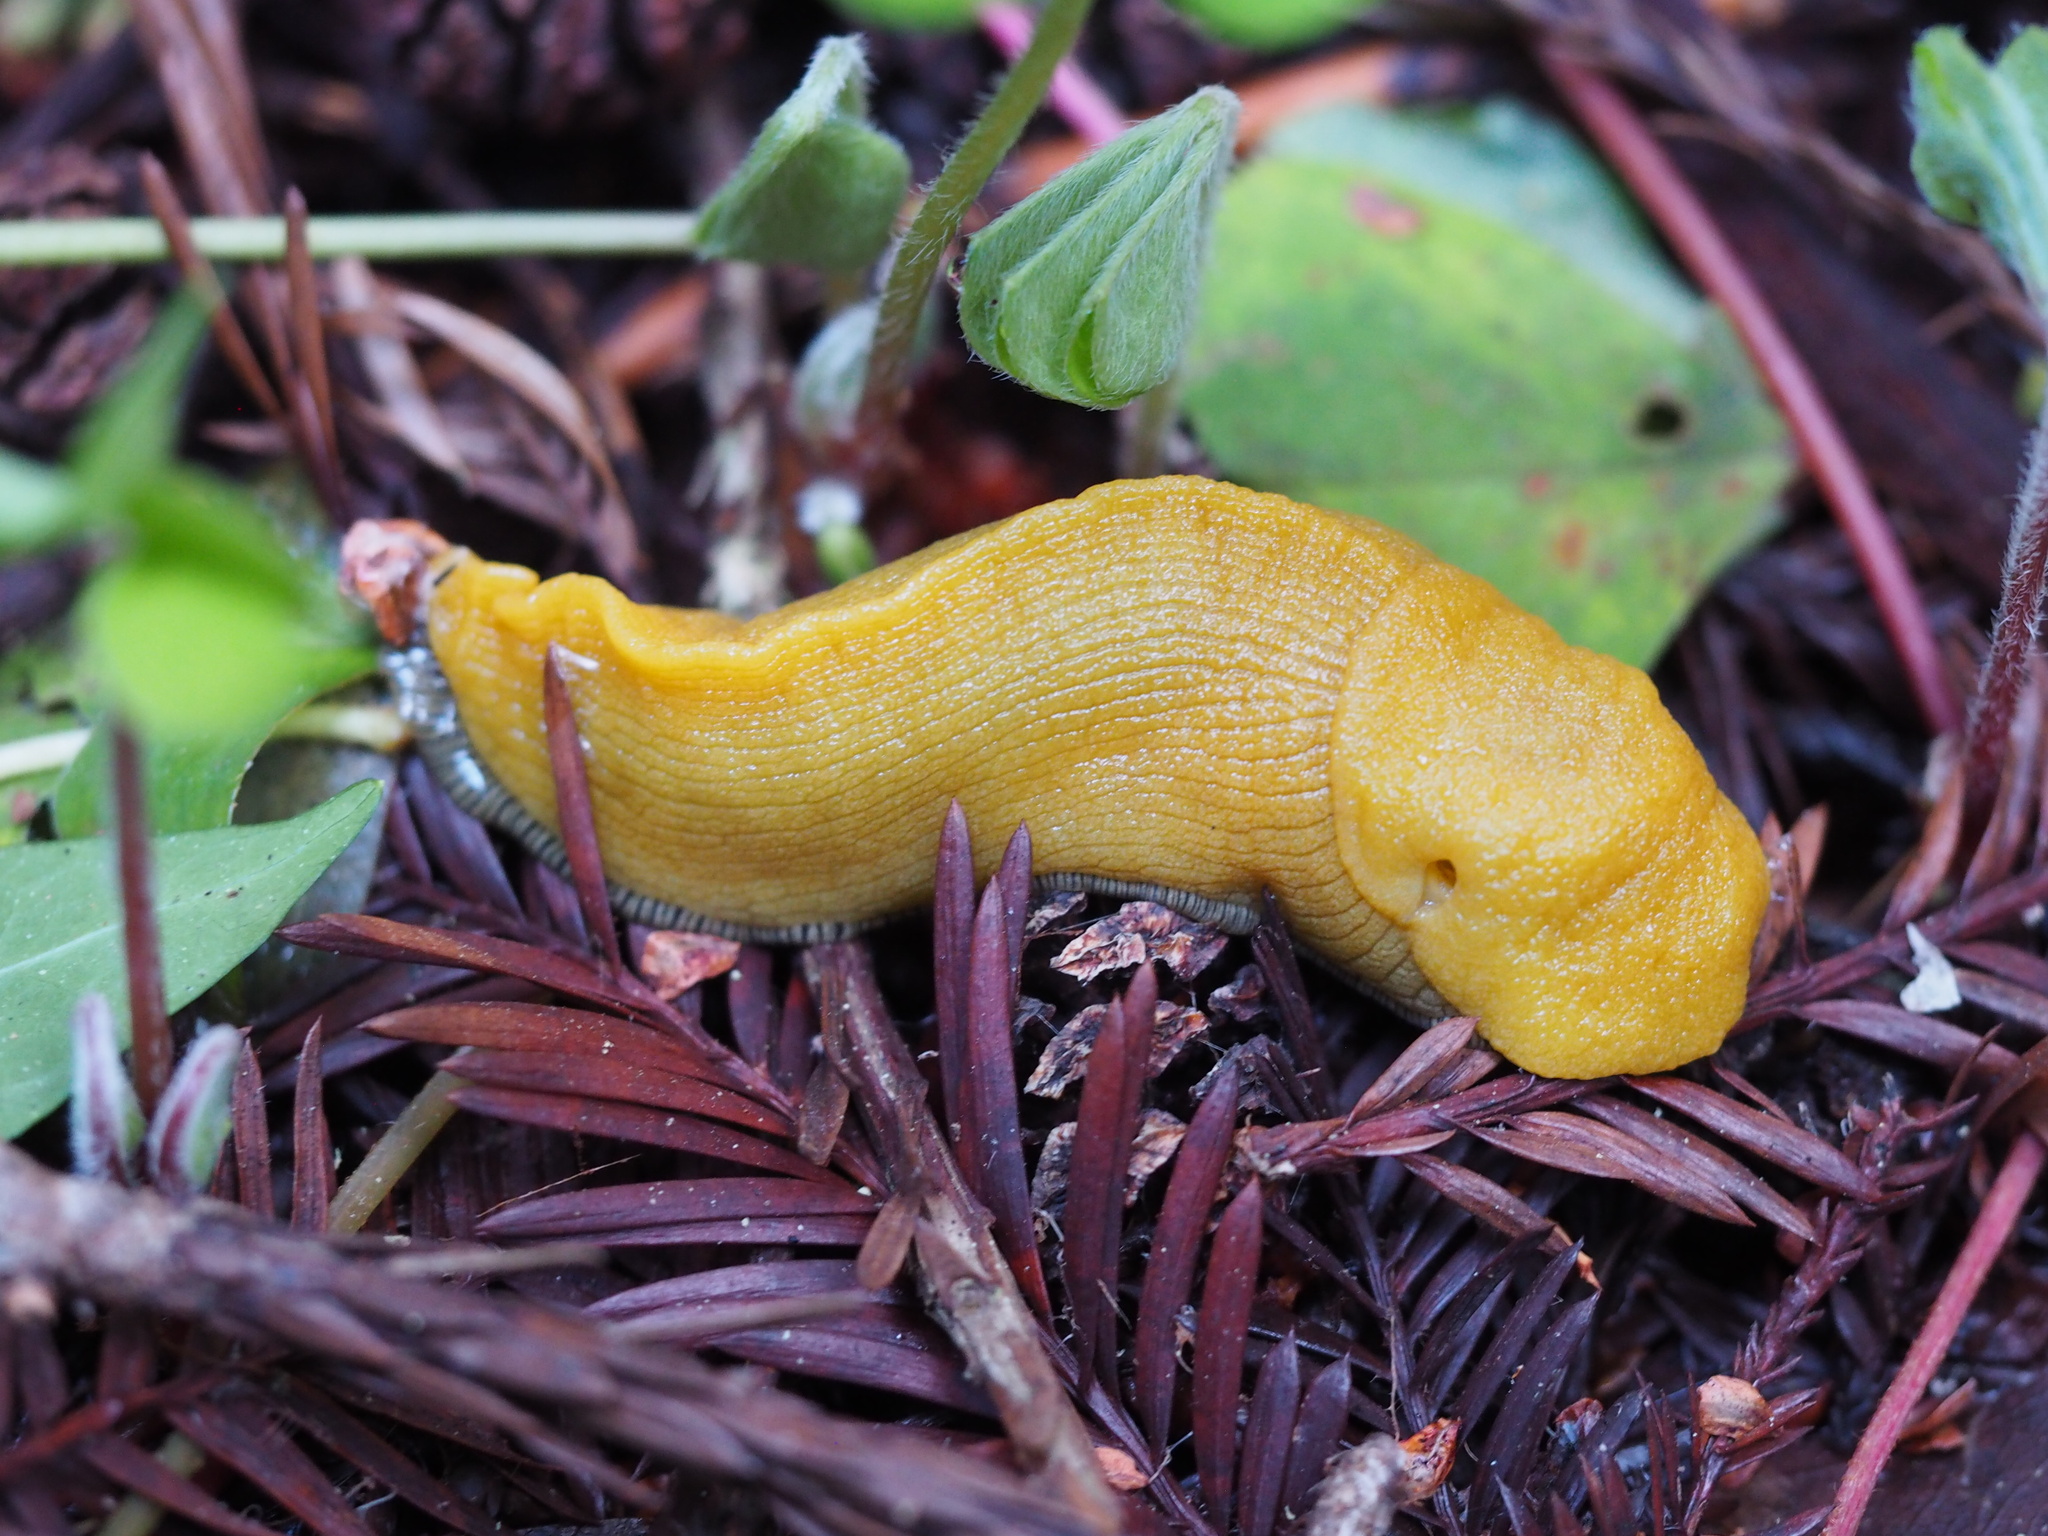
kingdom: Animalia
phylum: Mollusca
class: Gastropoda
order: Stylommatophora
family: Ariolimacidae
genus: Ariolimax
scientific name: Ariolimax dolichophallus
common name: Slender banana slug
